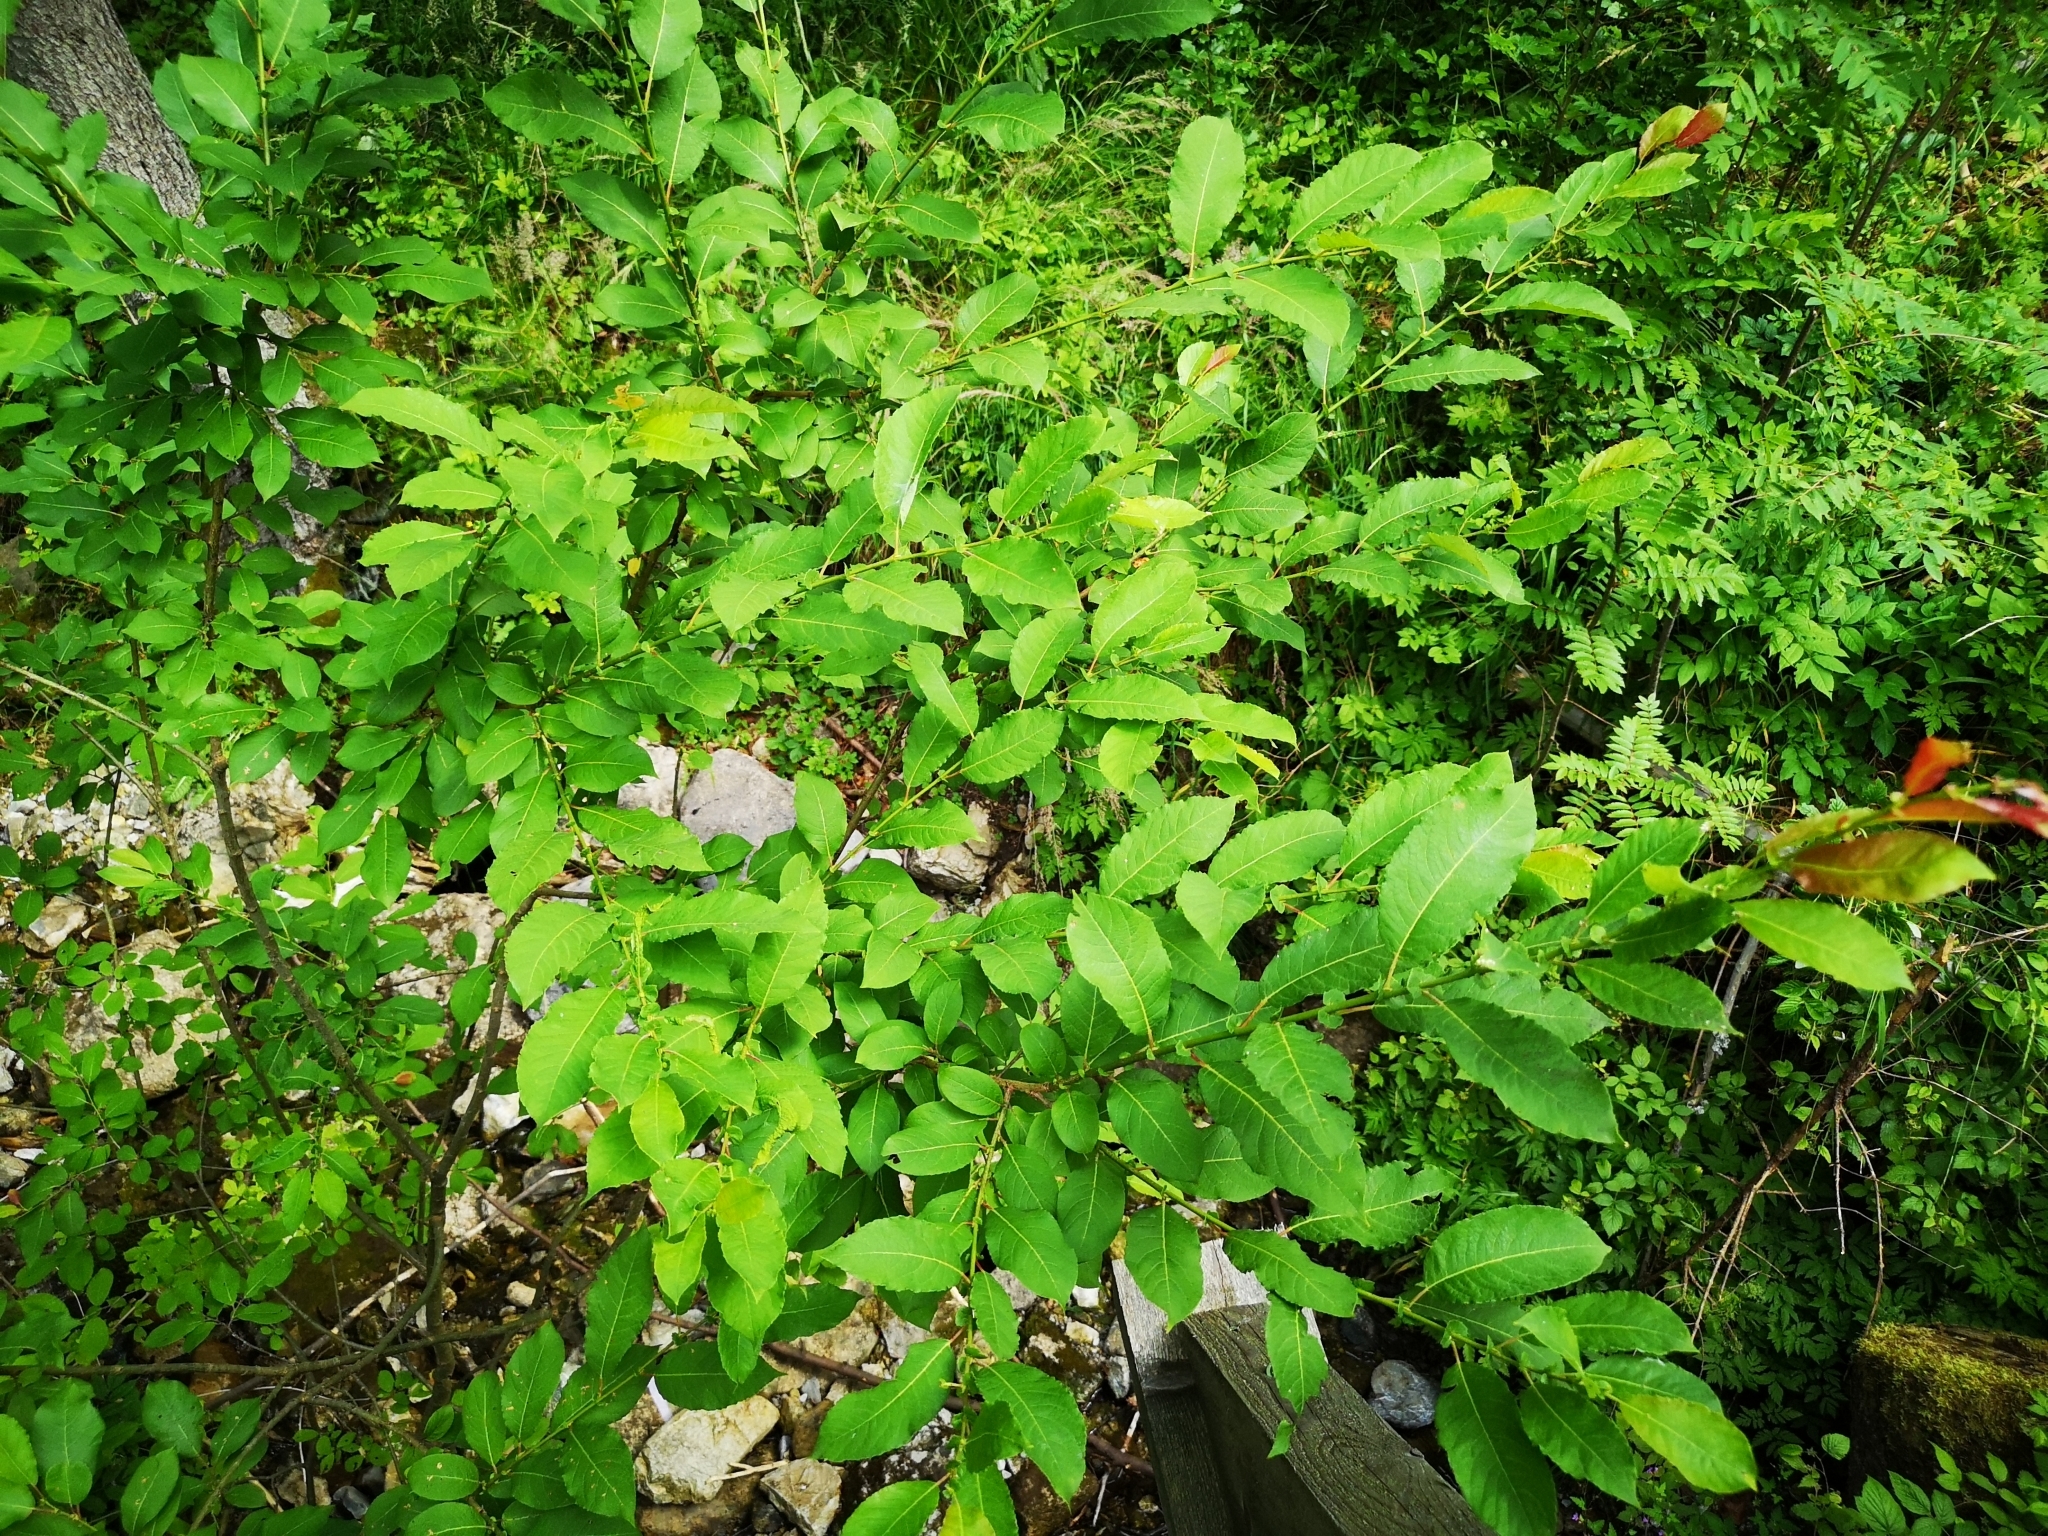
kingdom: Plantae
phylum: Tracheophyta
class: Magnoliopsida
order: Malpighiales
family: Salicaceae
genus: Salix
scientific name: Salix silesiaca
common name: Silesian willow
